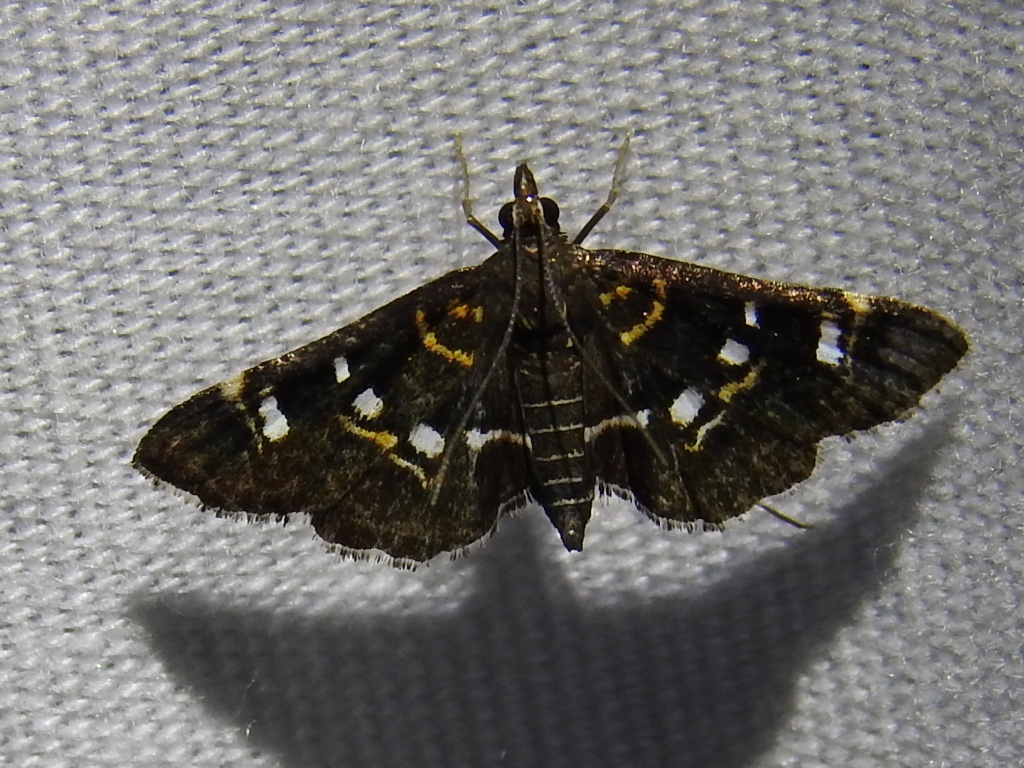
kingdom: Animalia
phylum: Arthropoda
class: Insecta
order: Lepidoptera
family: Crambidae
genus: Diathrausta
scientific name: Diathrausta harlequinalis
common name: Harlequin webworm moth
